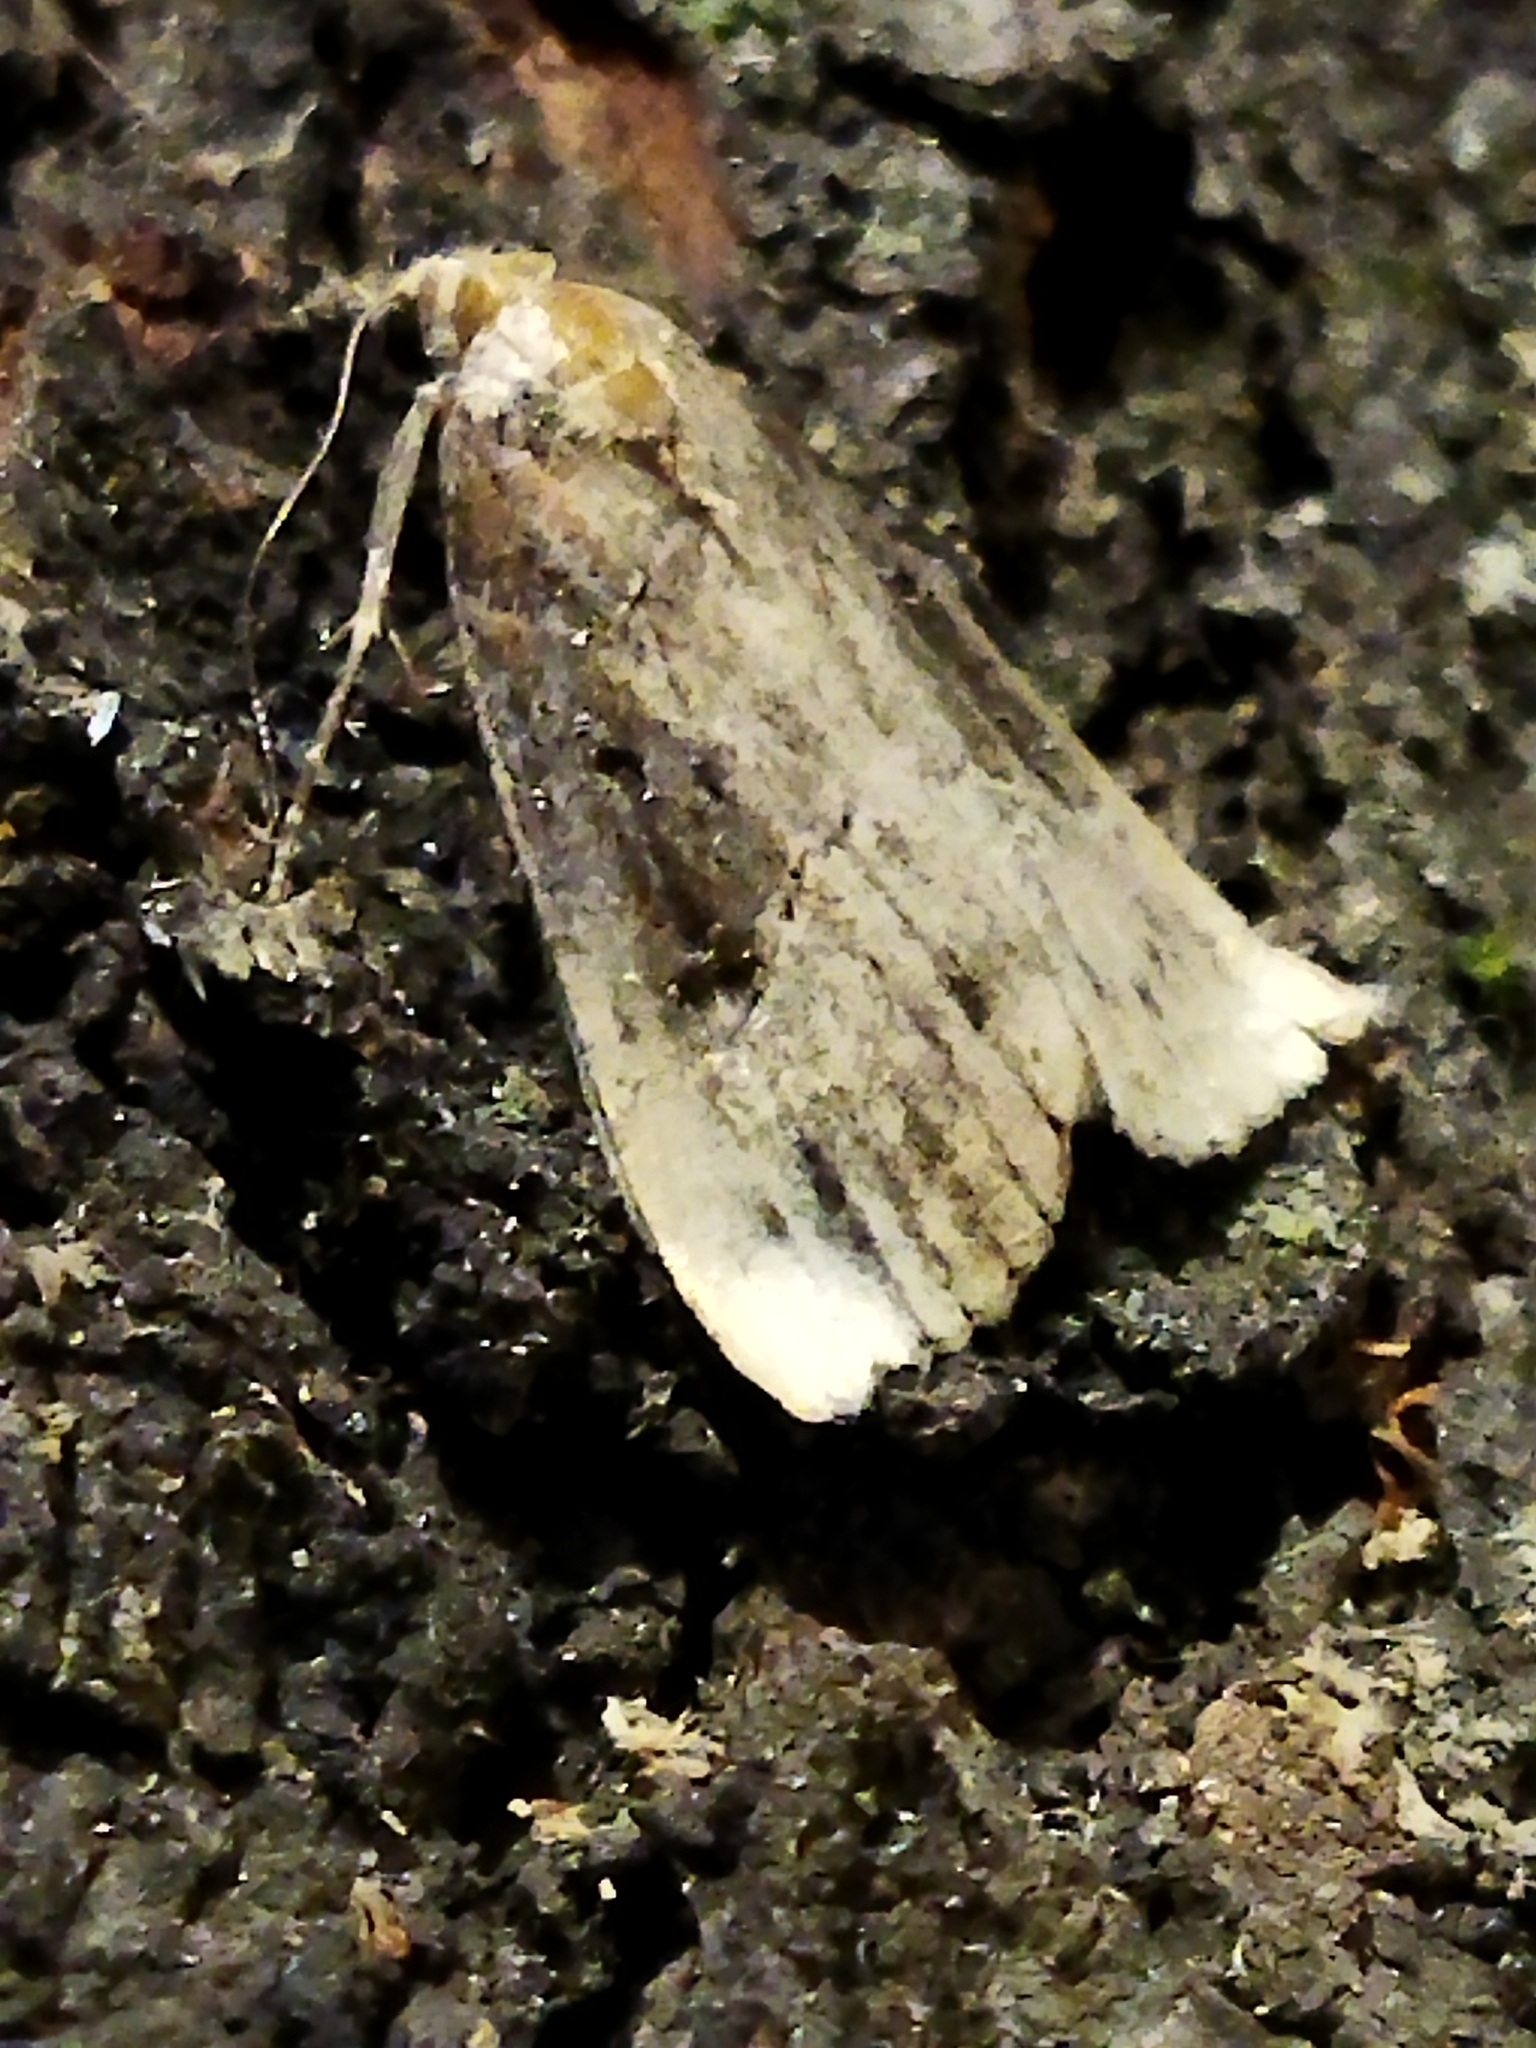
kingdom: Animalia
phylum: Arthropoda
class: Insecta
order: Lepidoptera
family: Erebidae
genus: Hypena
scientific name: Hypena rostralis
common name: Buttoned snout
